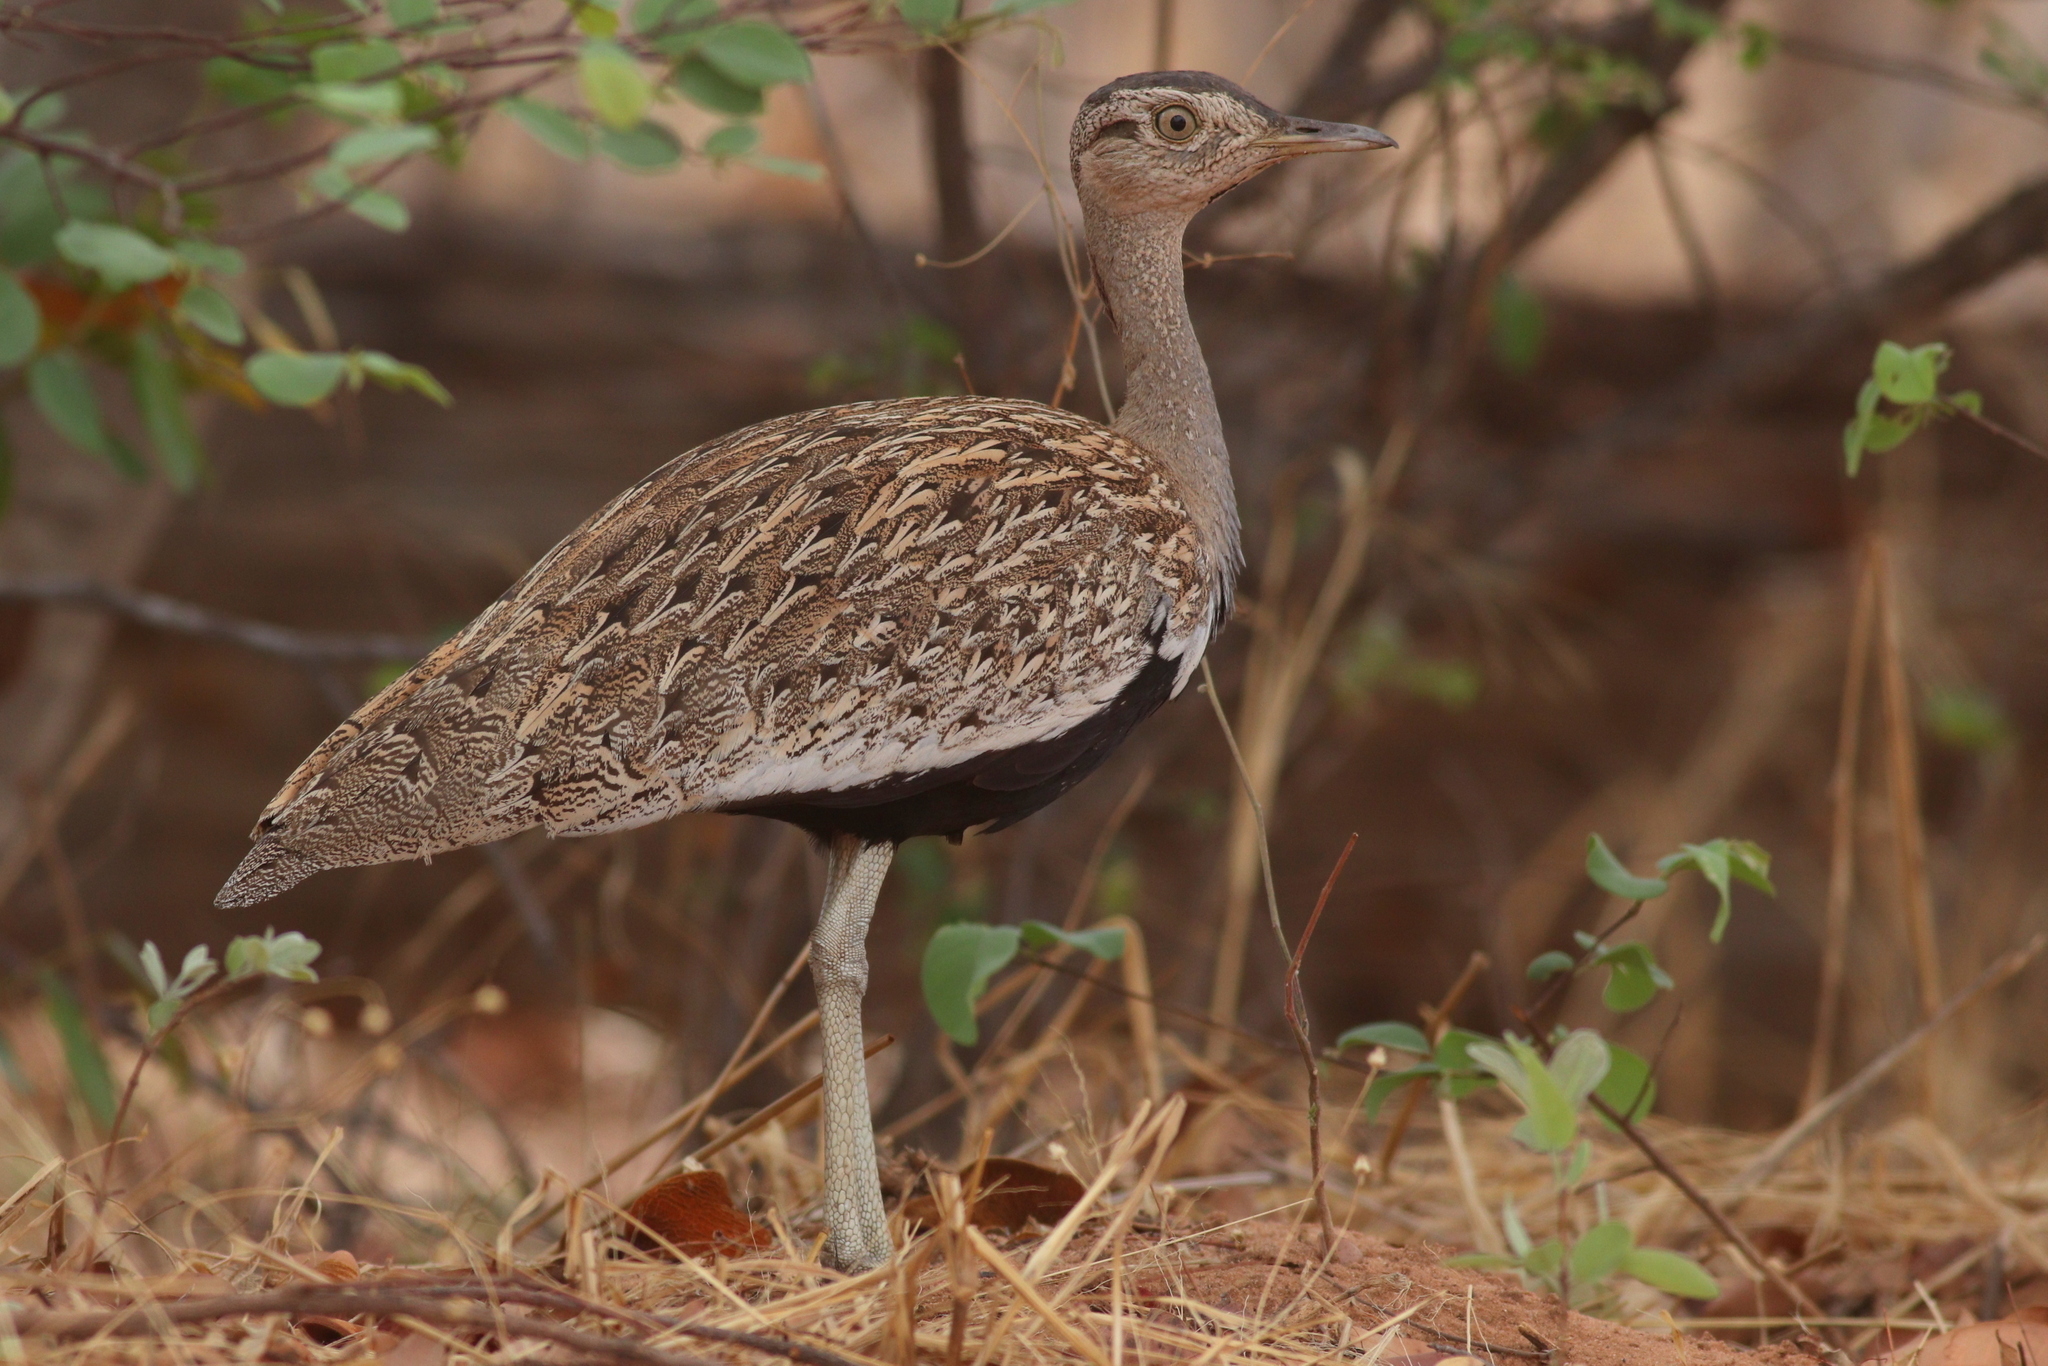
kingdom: Animalia
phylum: Chordata
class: Aves
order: Otidiformes
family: Otididae
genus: Lophotis
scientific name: Lophotis ruficrista
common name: Red-crested korhaan
